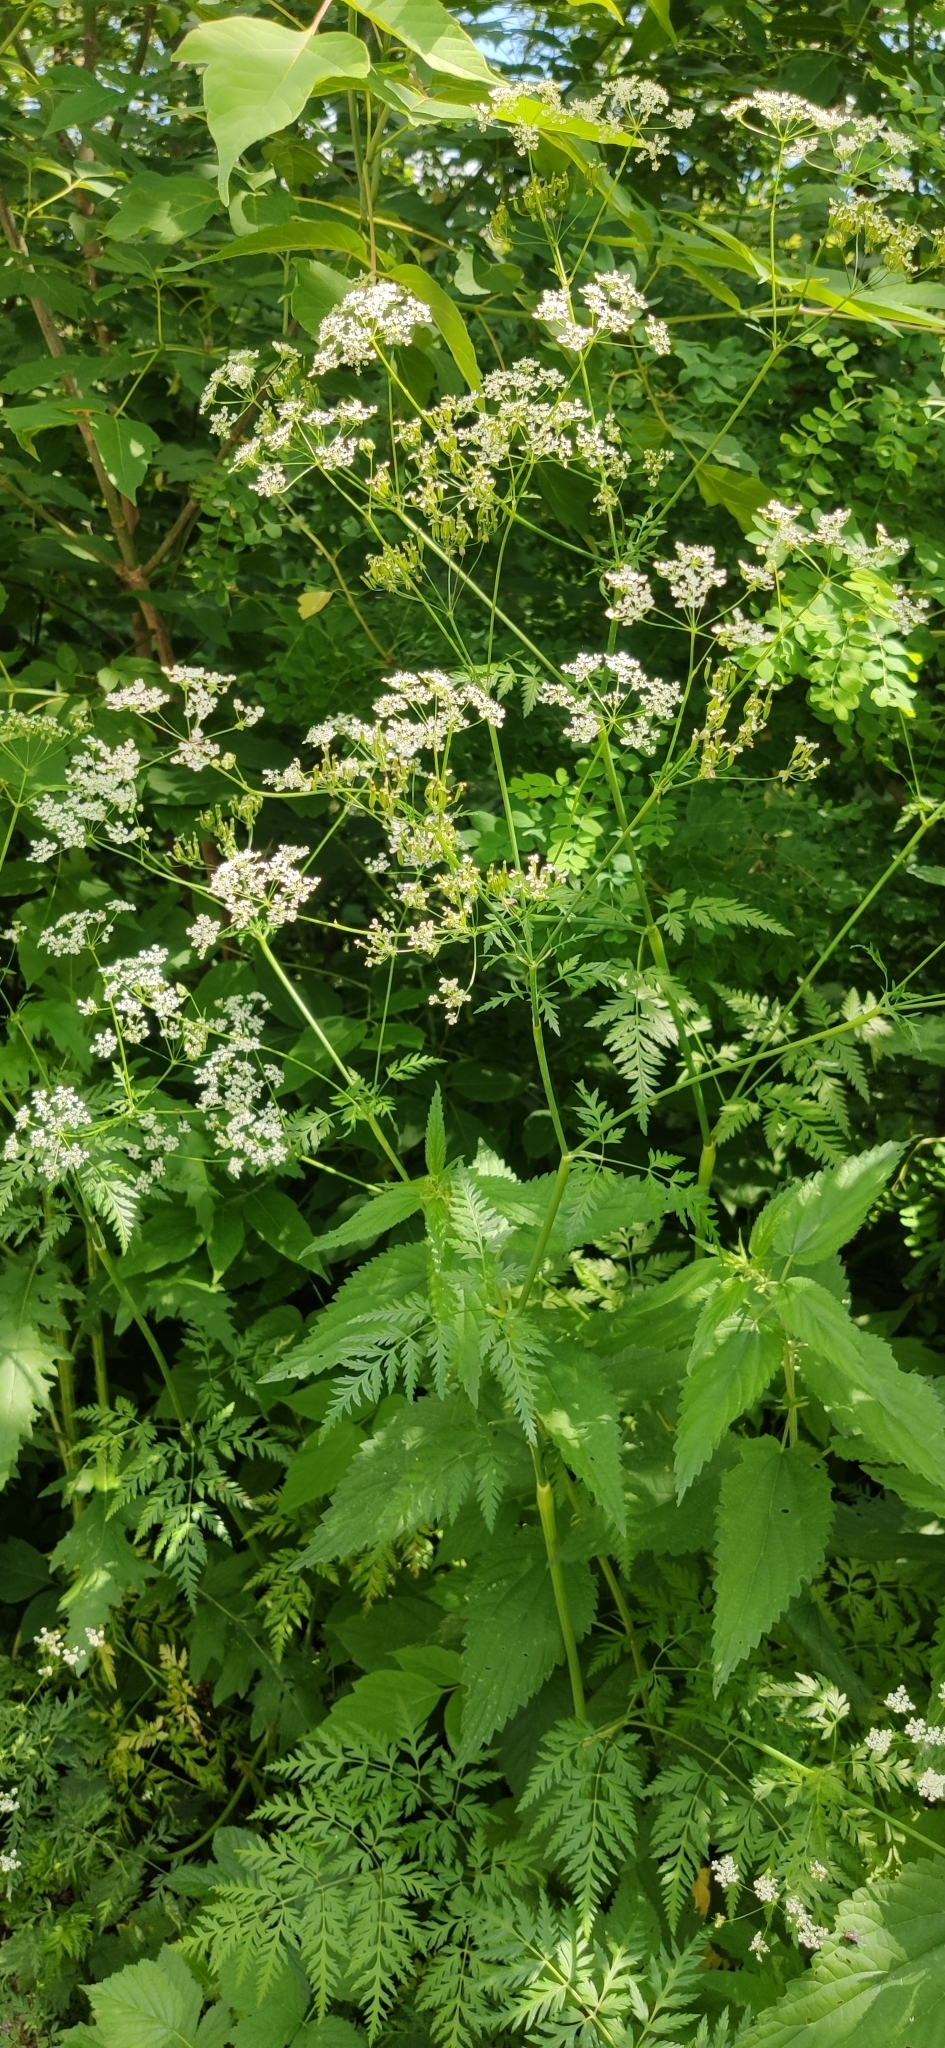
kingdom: Plantae
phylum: Tracheophyta
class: Magnoliopsida
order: Apiales
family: Apiaceae
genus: Anthriscus
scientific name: Anthriscus sylvestris
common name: Cow parsley
